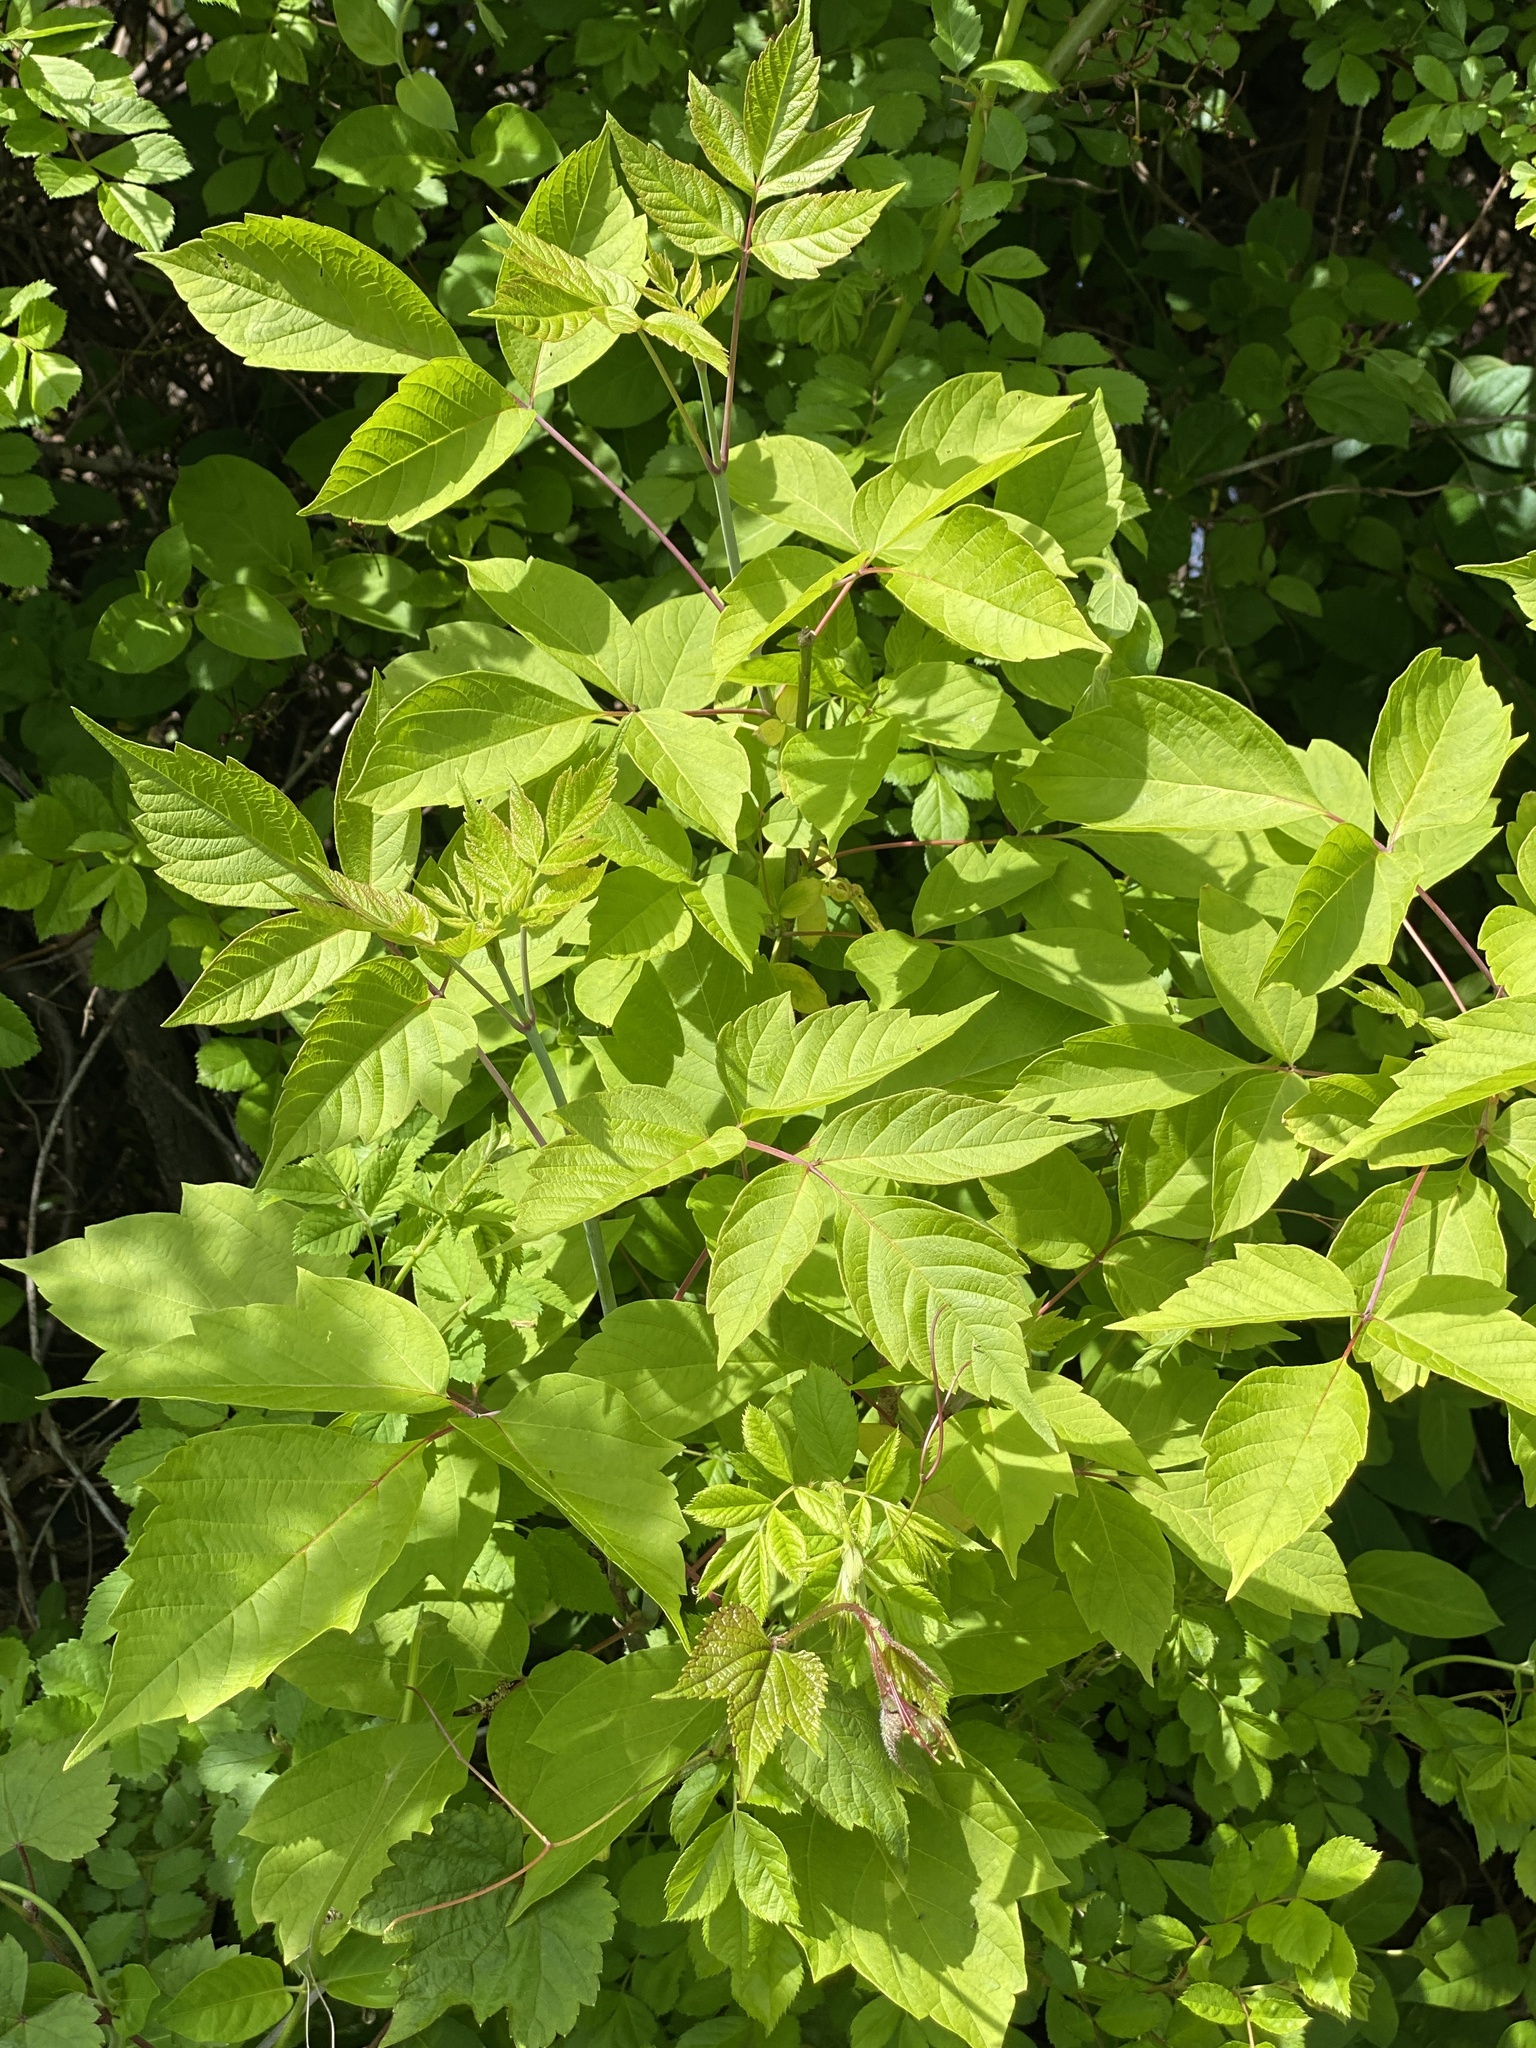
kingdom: Plantae
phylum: Tracheophyta
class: Magnoliopsida
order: Sapindales
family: Sapindaceae
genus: Acer
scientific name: Acer negundo
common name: Ashleaf maple
